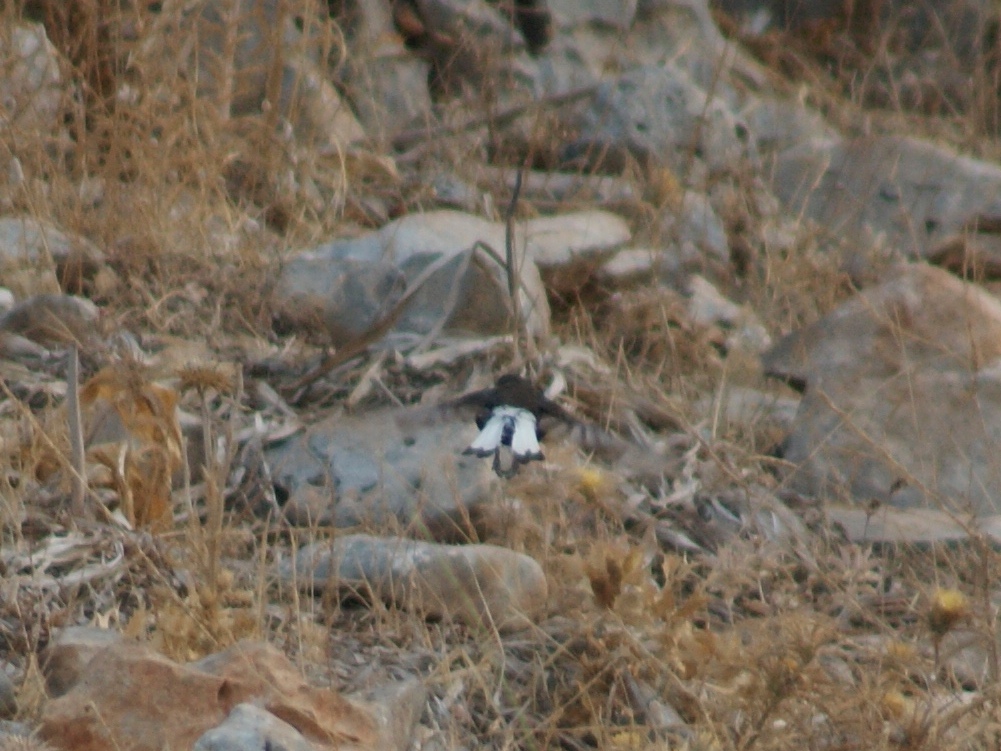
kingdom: Animalia
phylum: Chordata
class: Aves
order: Passeriformes
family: Muscicapidae
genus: Oenanthe
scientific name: Oenanthe leucura
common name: Black wheatear
